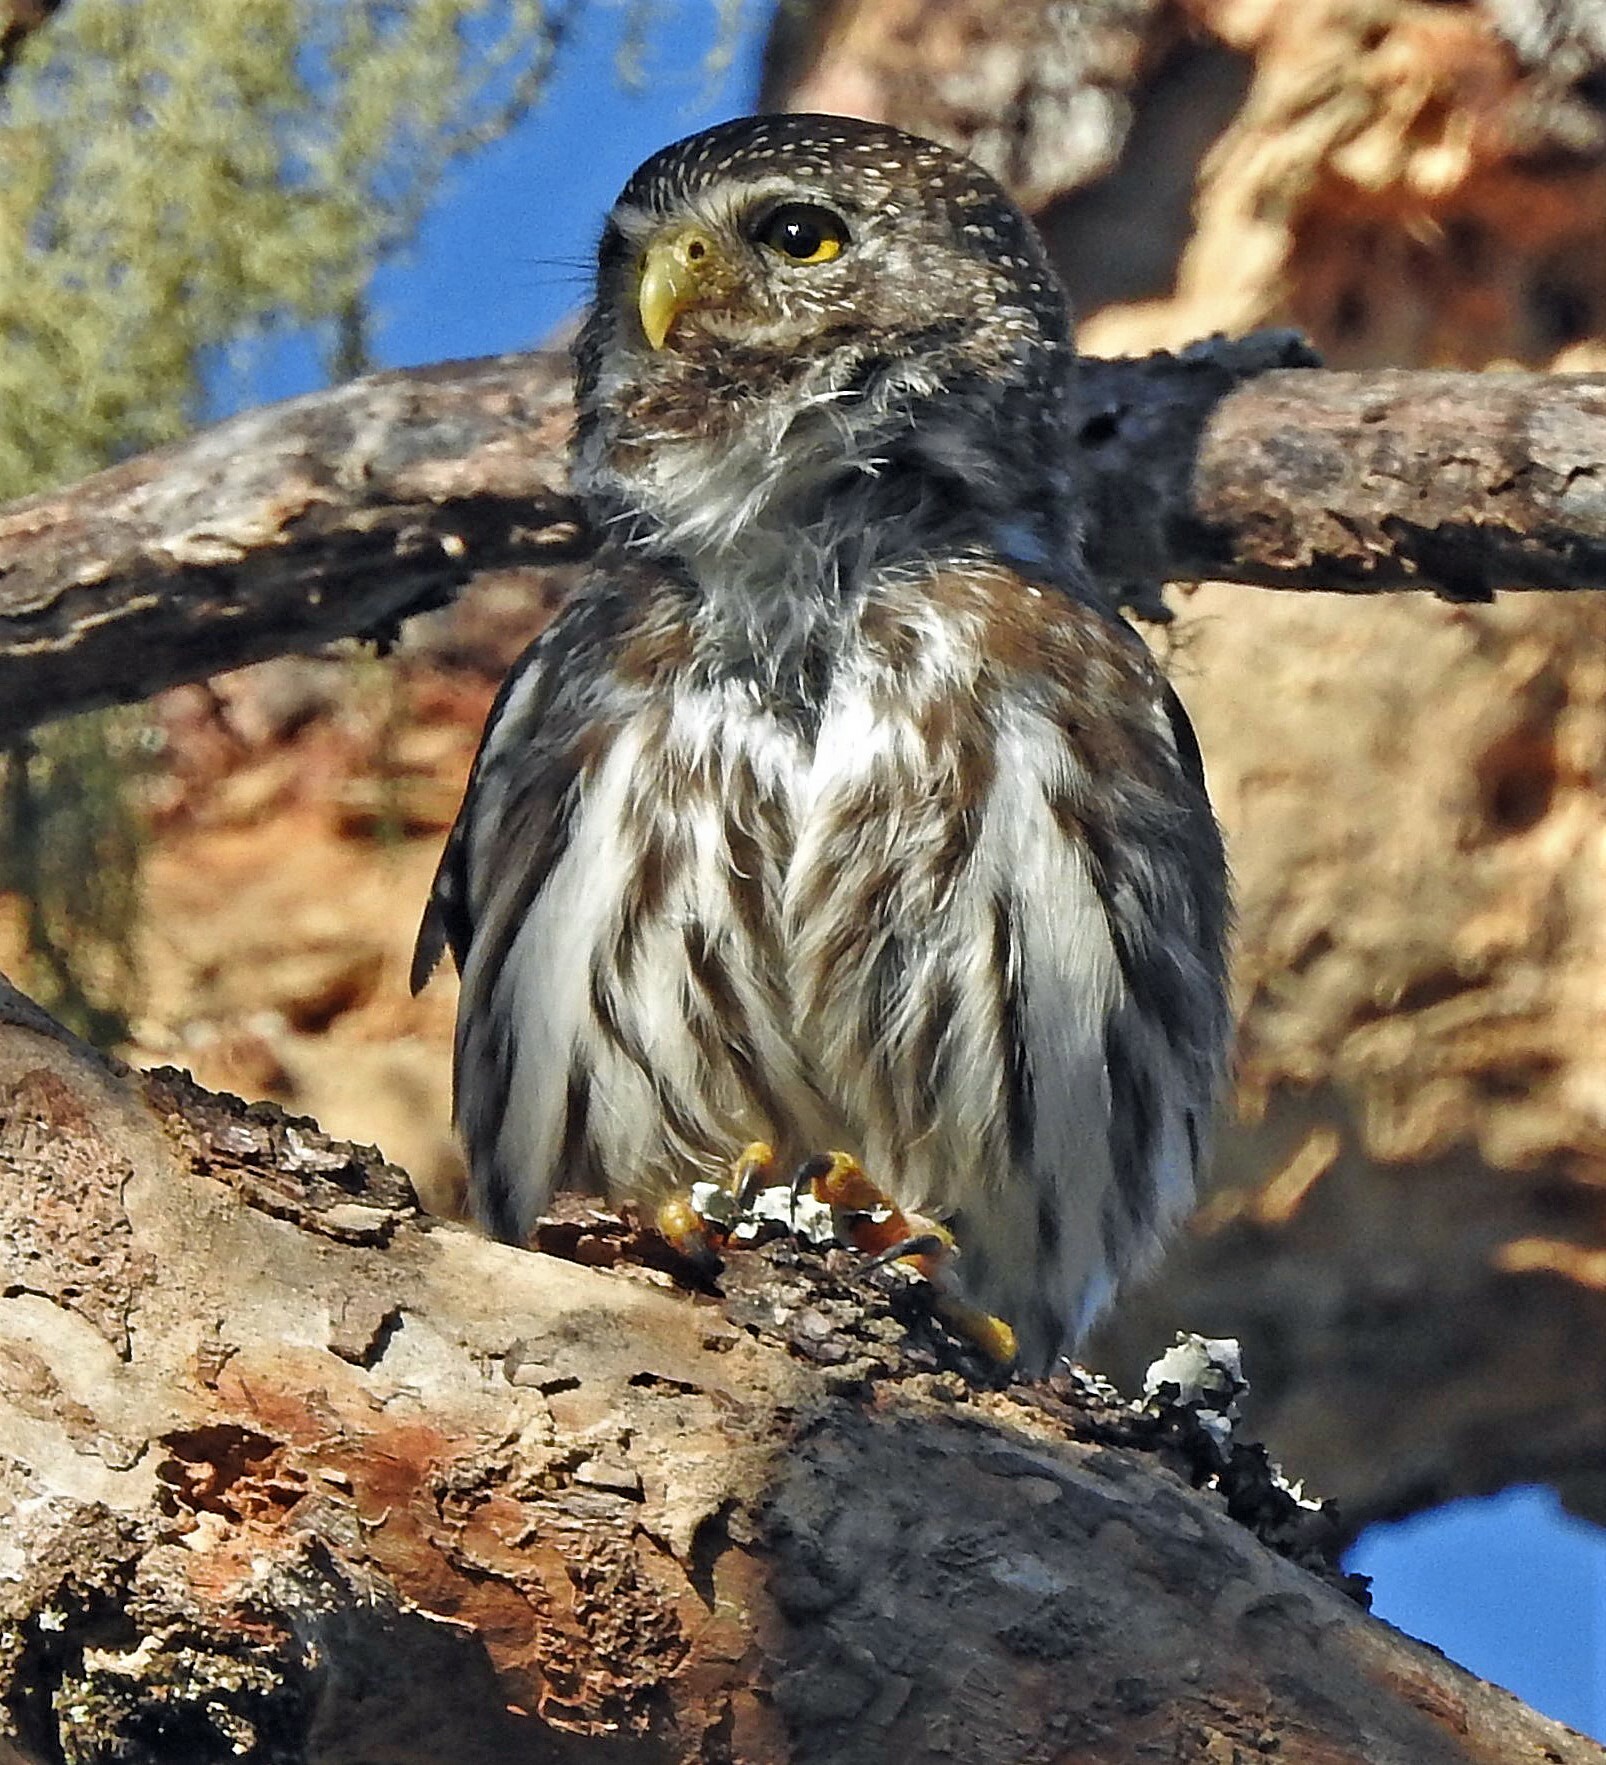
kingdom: Animalia
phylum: Chordata
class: Aves
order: Strigiformes
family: Strigidae
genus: Glaucidium
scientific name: Glaucidium brasilianum
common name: Ferruginous pygmy-owl
